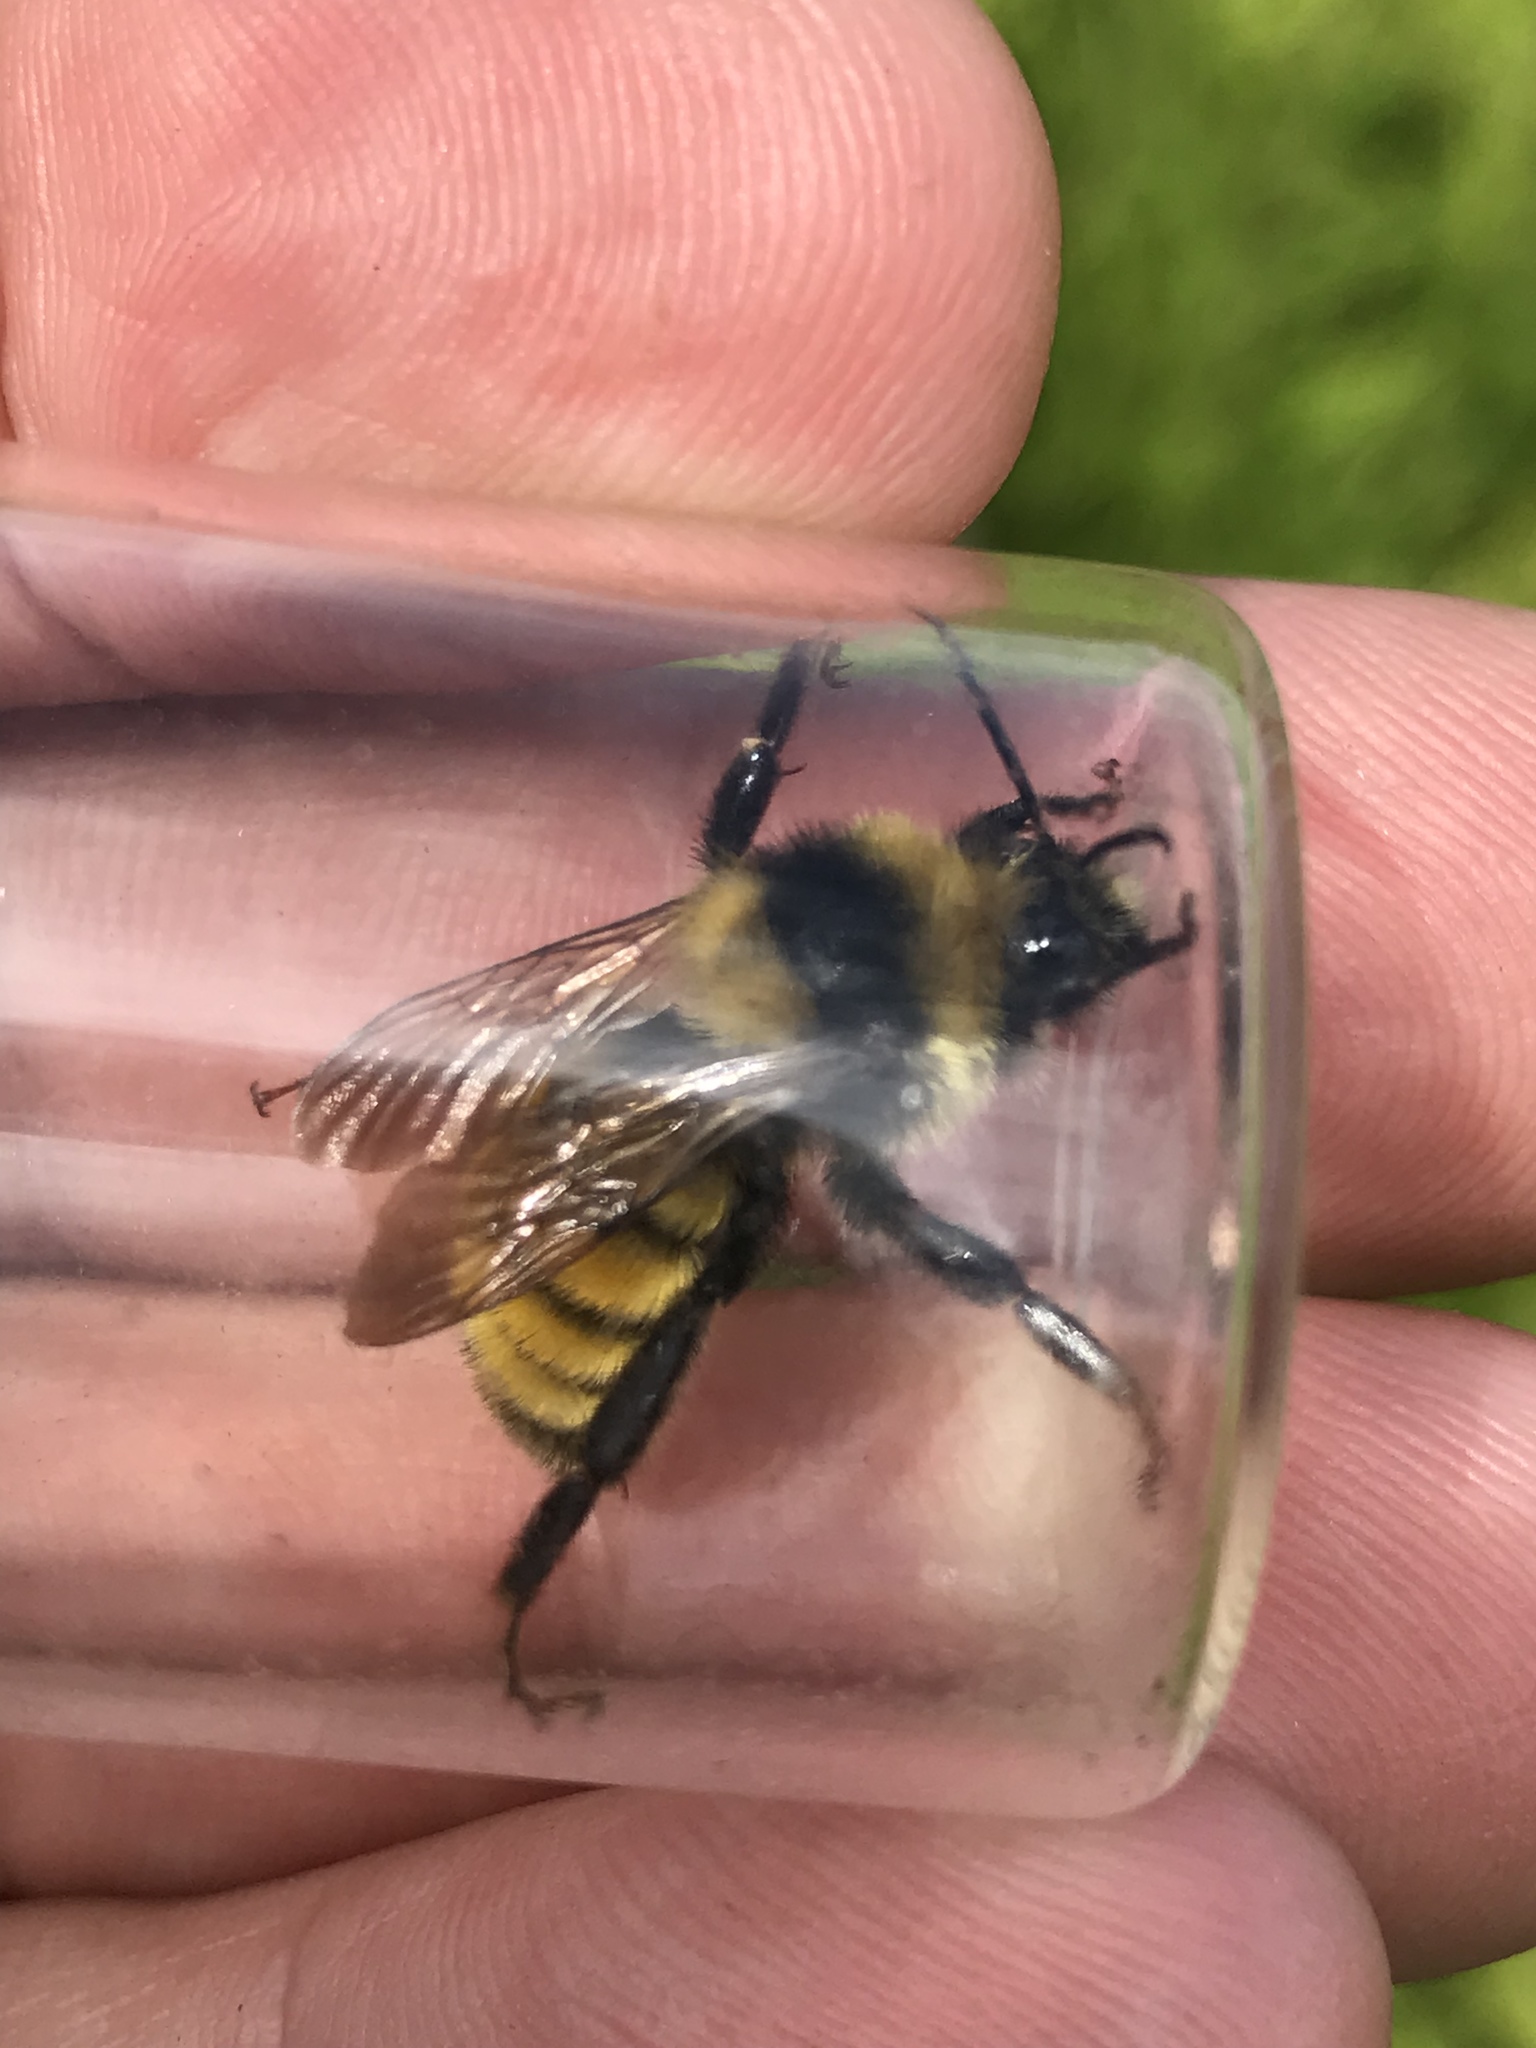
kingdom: Animalia
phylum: Arthropoda
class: Insecta
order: Hymenoptera
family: Apidae
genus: Bombus
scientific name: Bombus borealis
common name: Northern amber bumble bee
